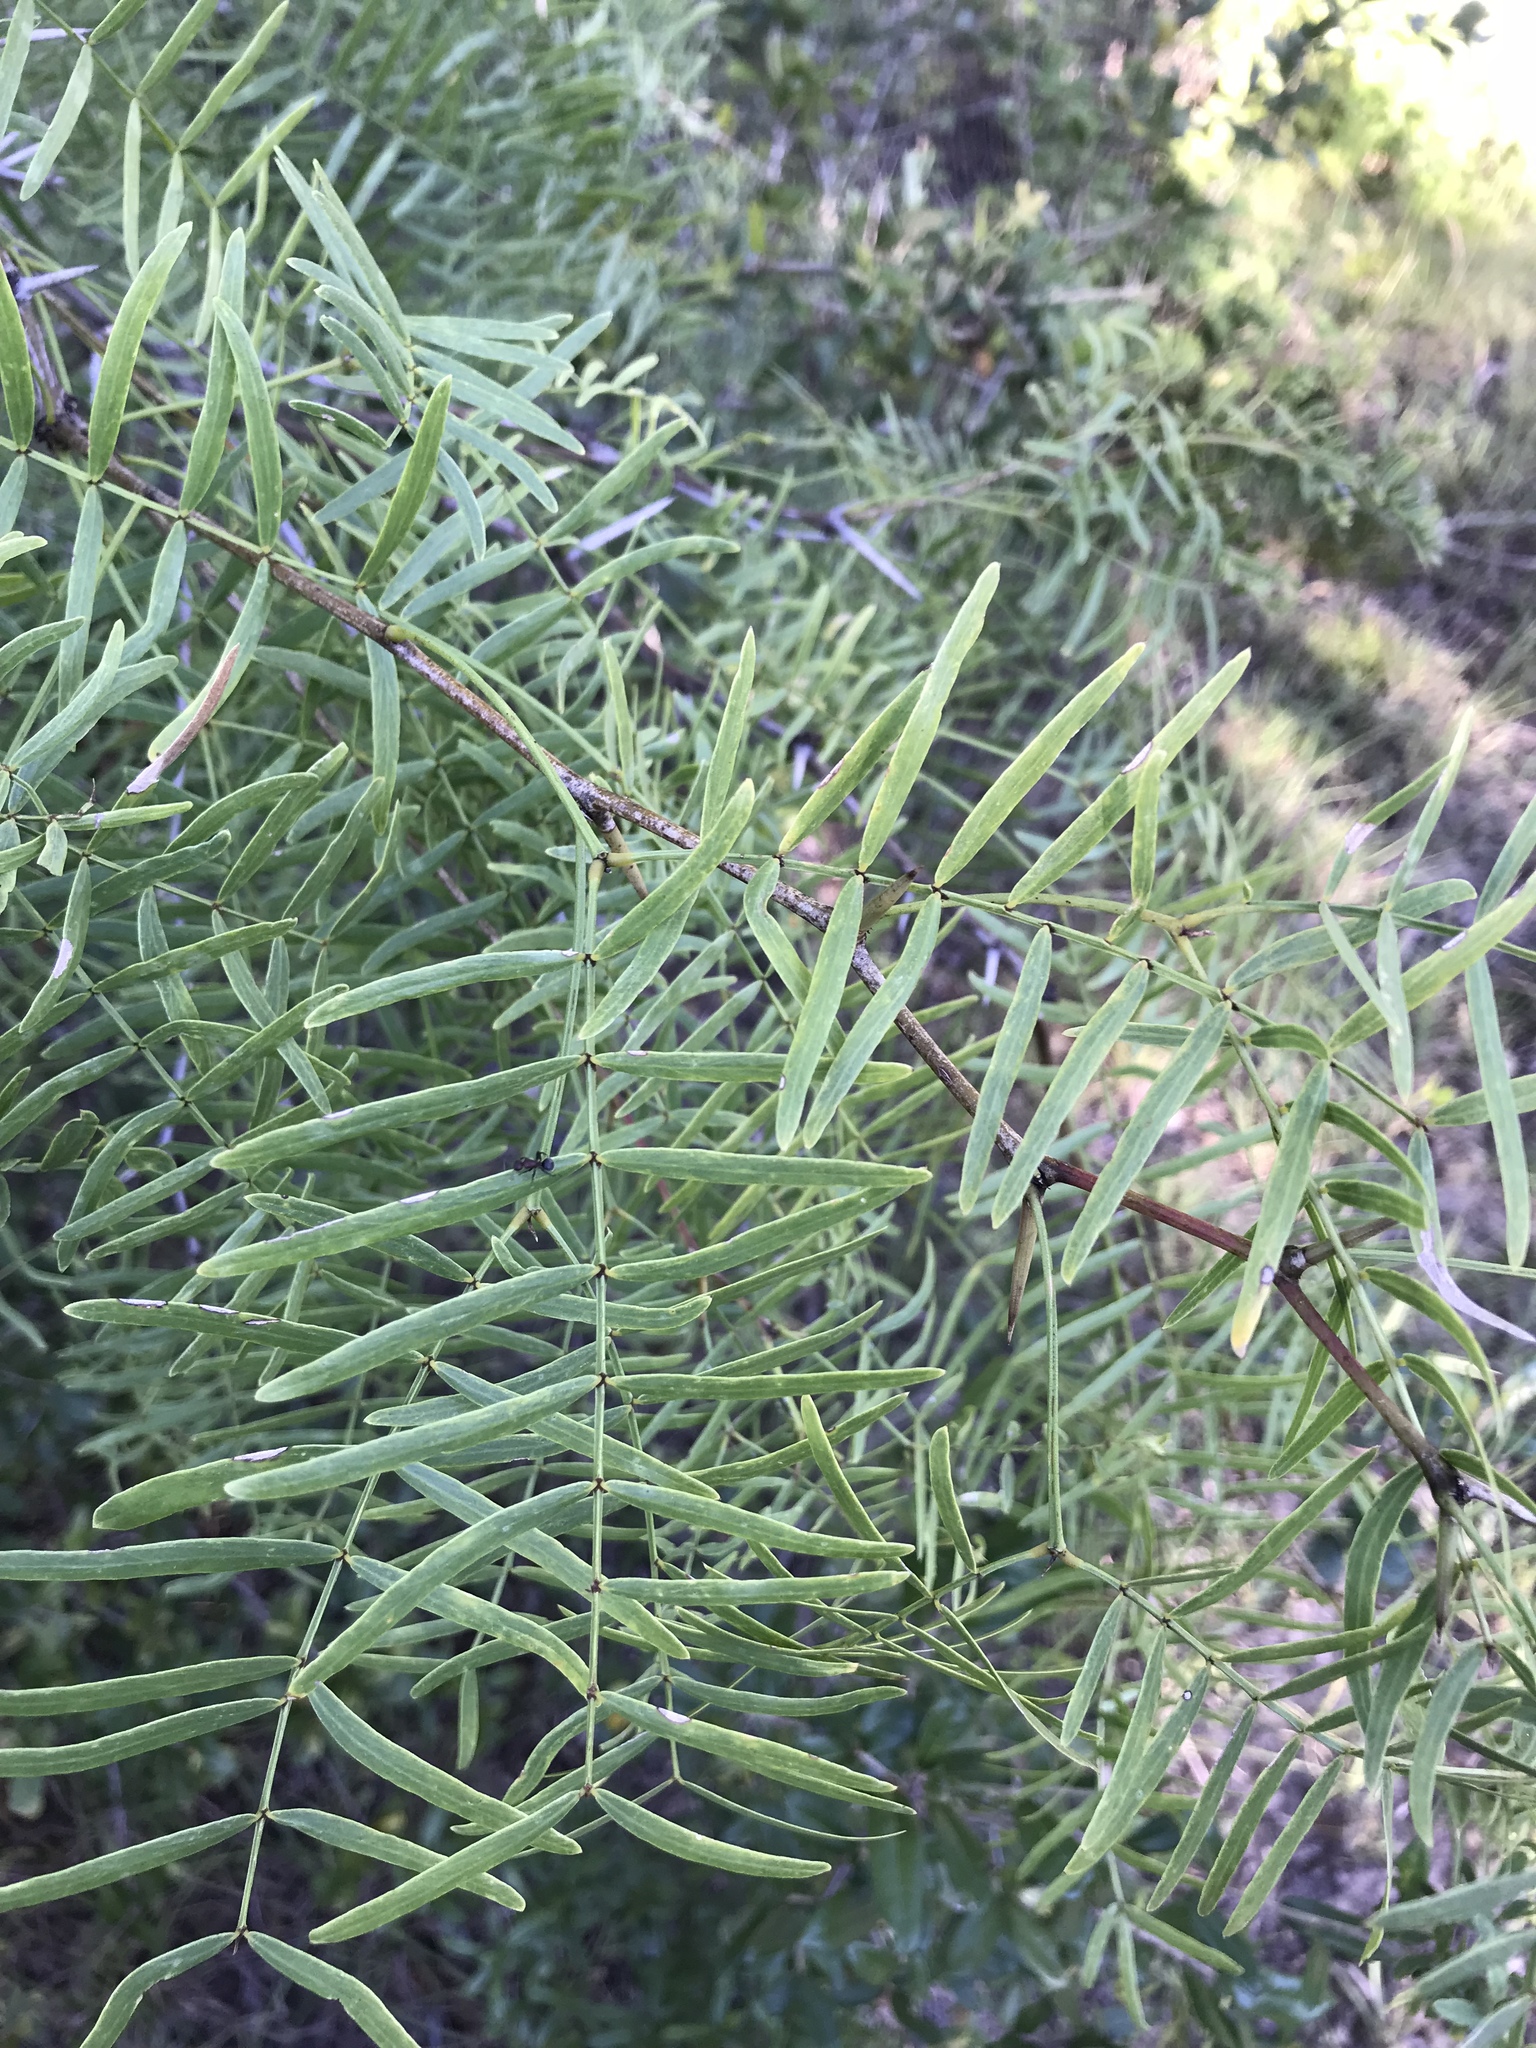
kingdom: Plantae
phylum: Tracheophyta
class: Magnoliopsida
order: Fabales
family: Fabaceae
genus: Prosopis
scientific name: Prosopis glandulosa
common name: Honey mesquite
